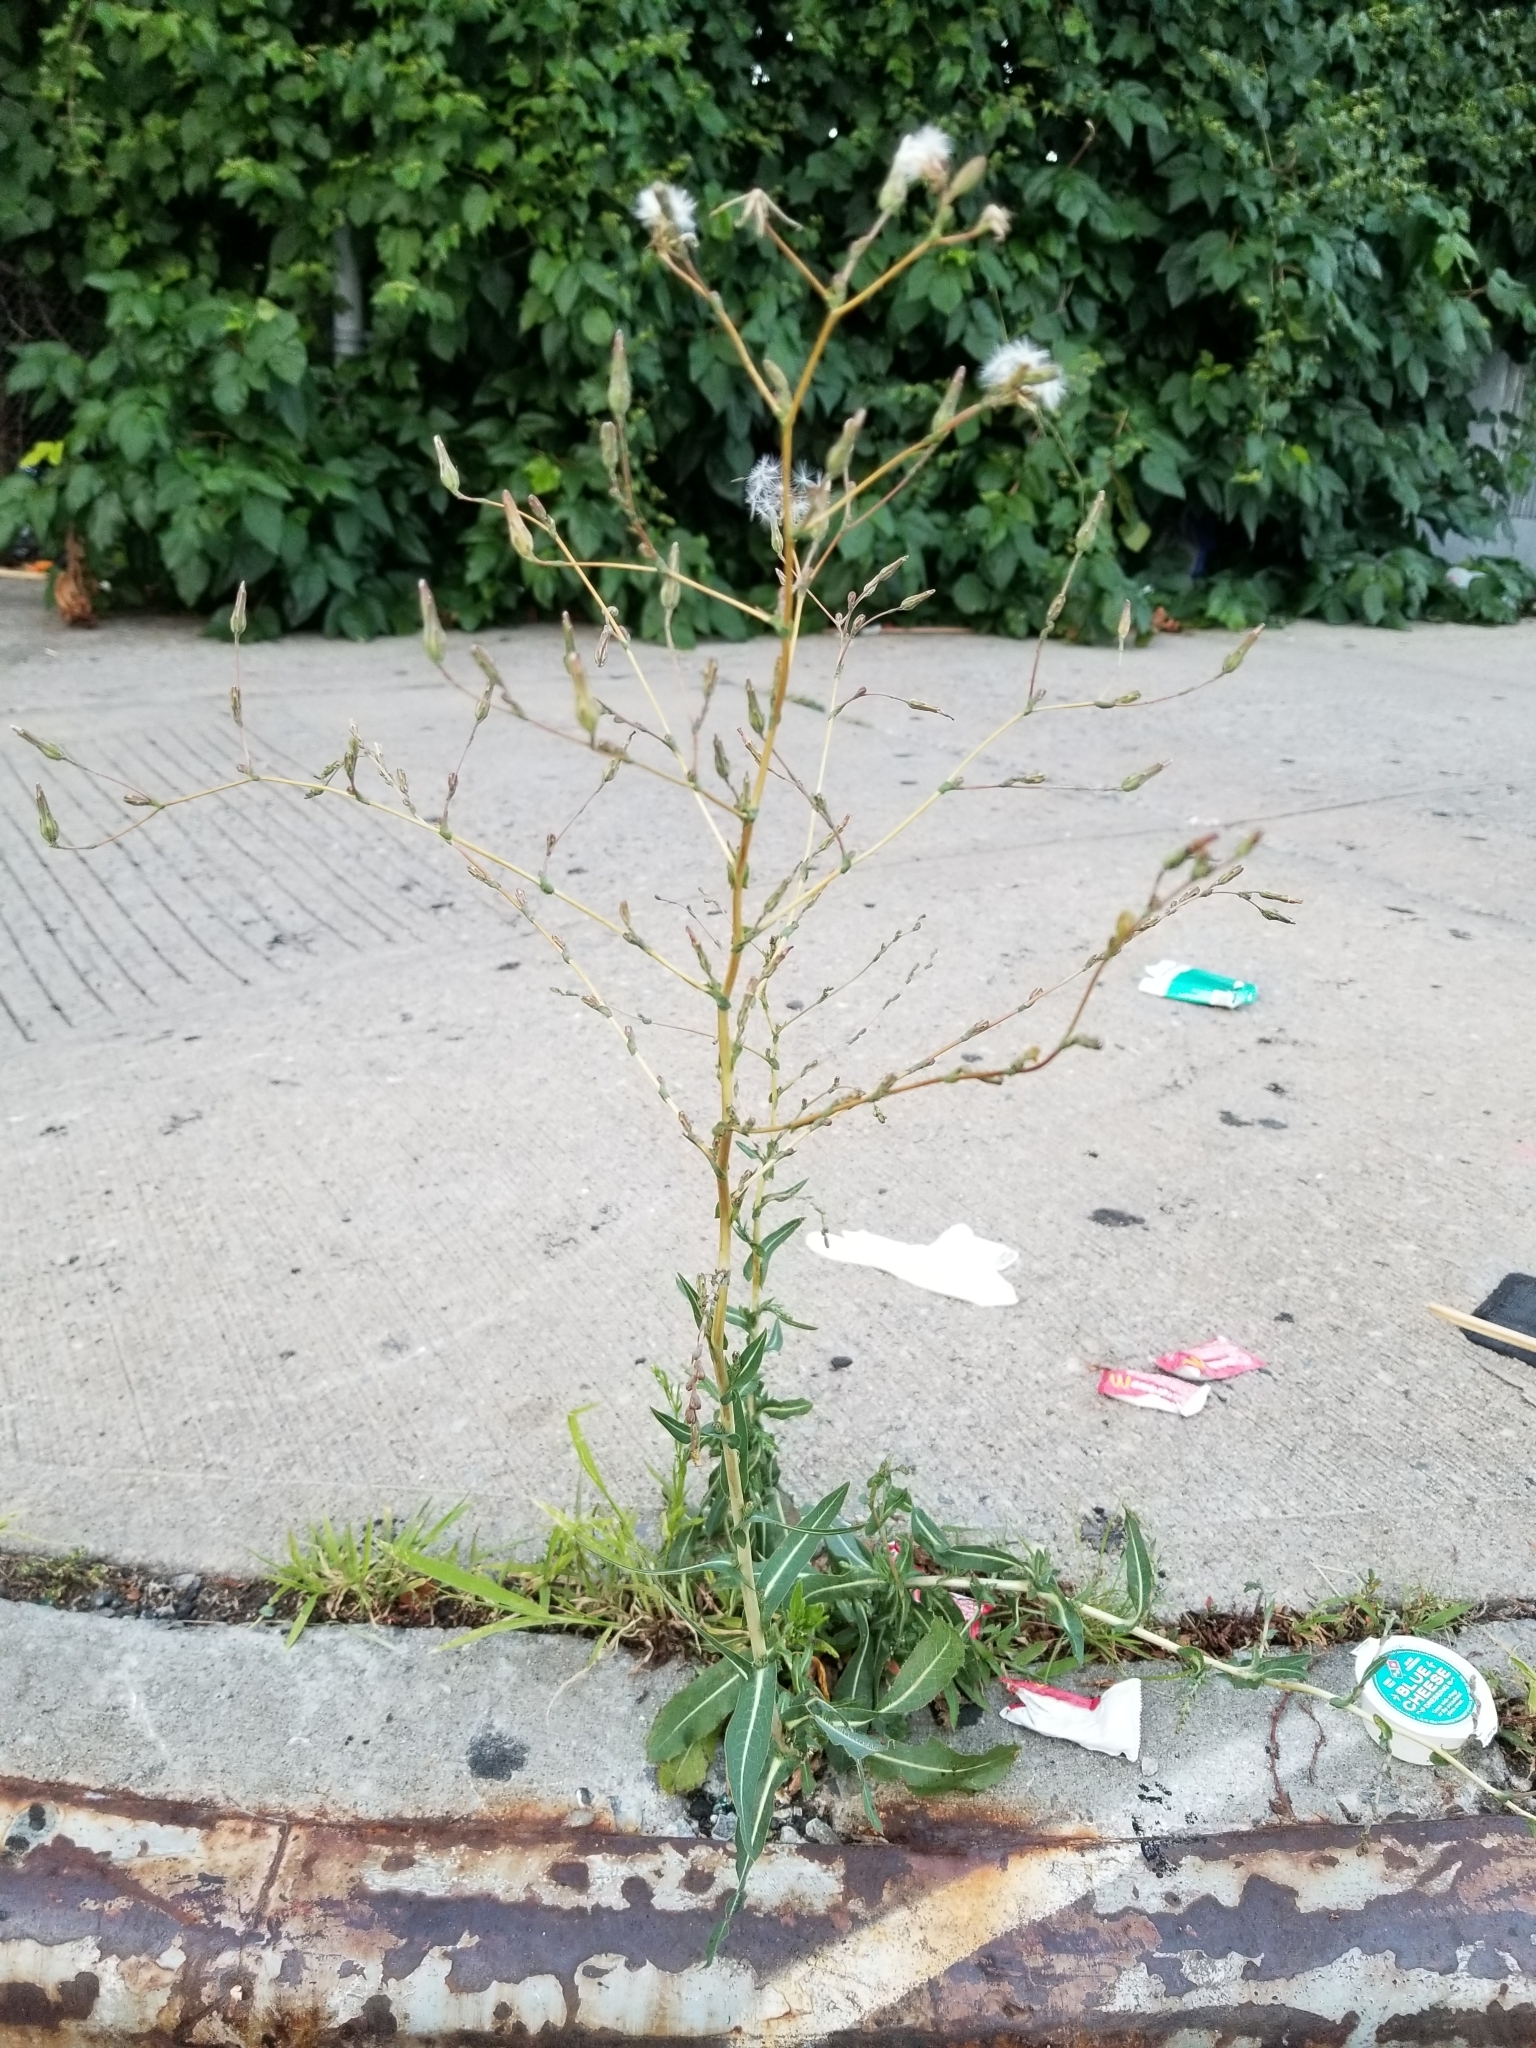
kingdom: Plantae
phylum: Tracheophyta
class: Magnoliopsida
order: Asterales
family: Asteraceae
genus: Lactuca
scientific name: Lactuca serriola
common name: Prickly lettuce
